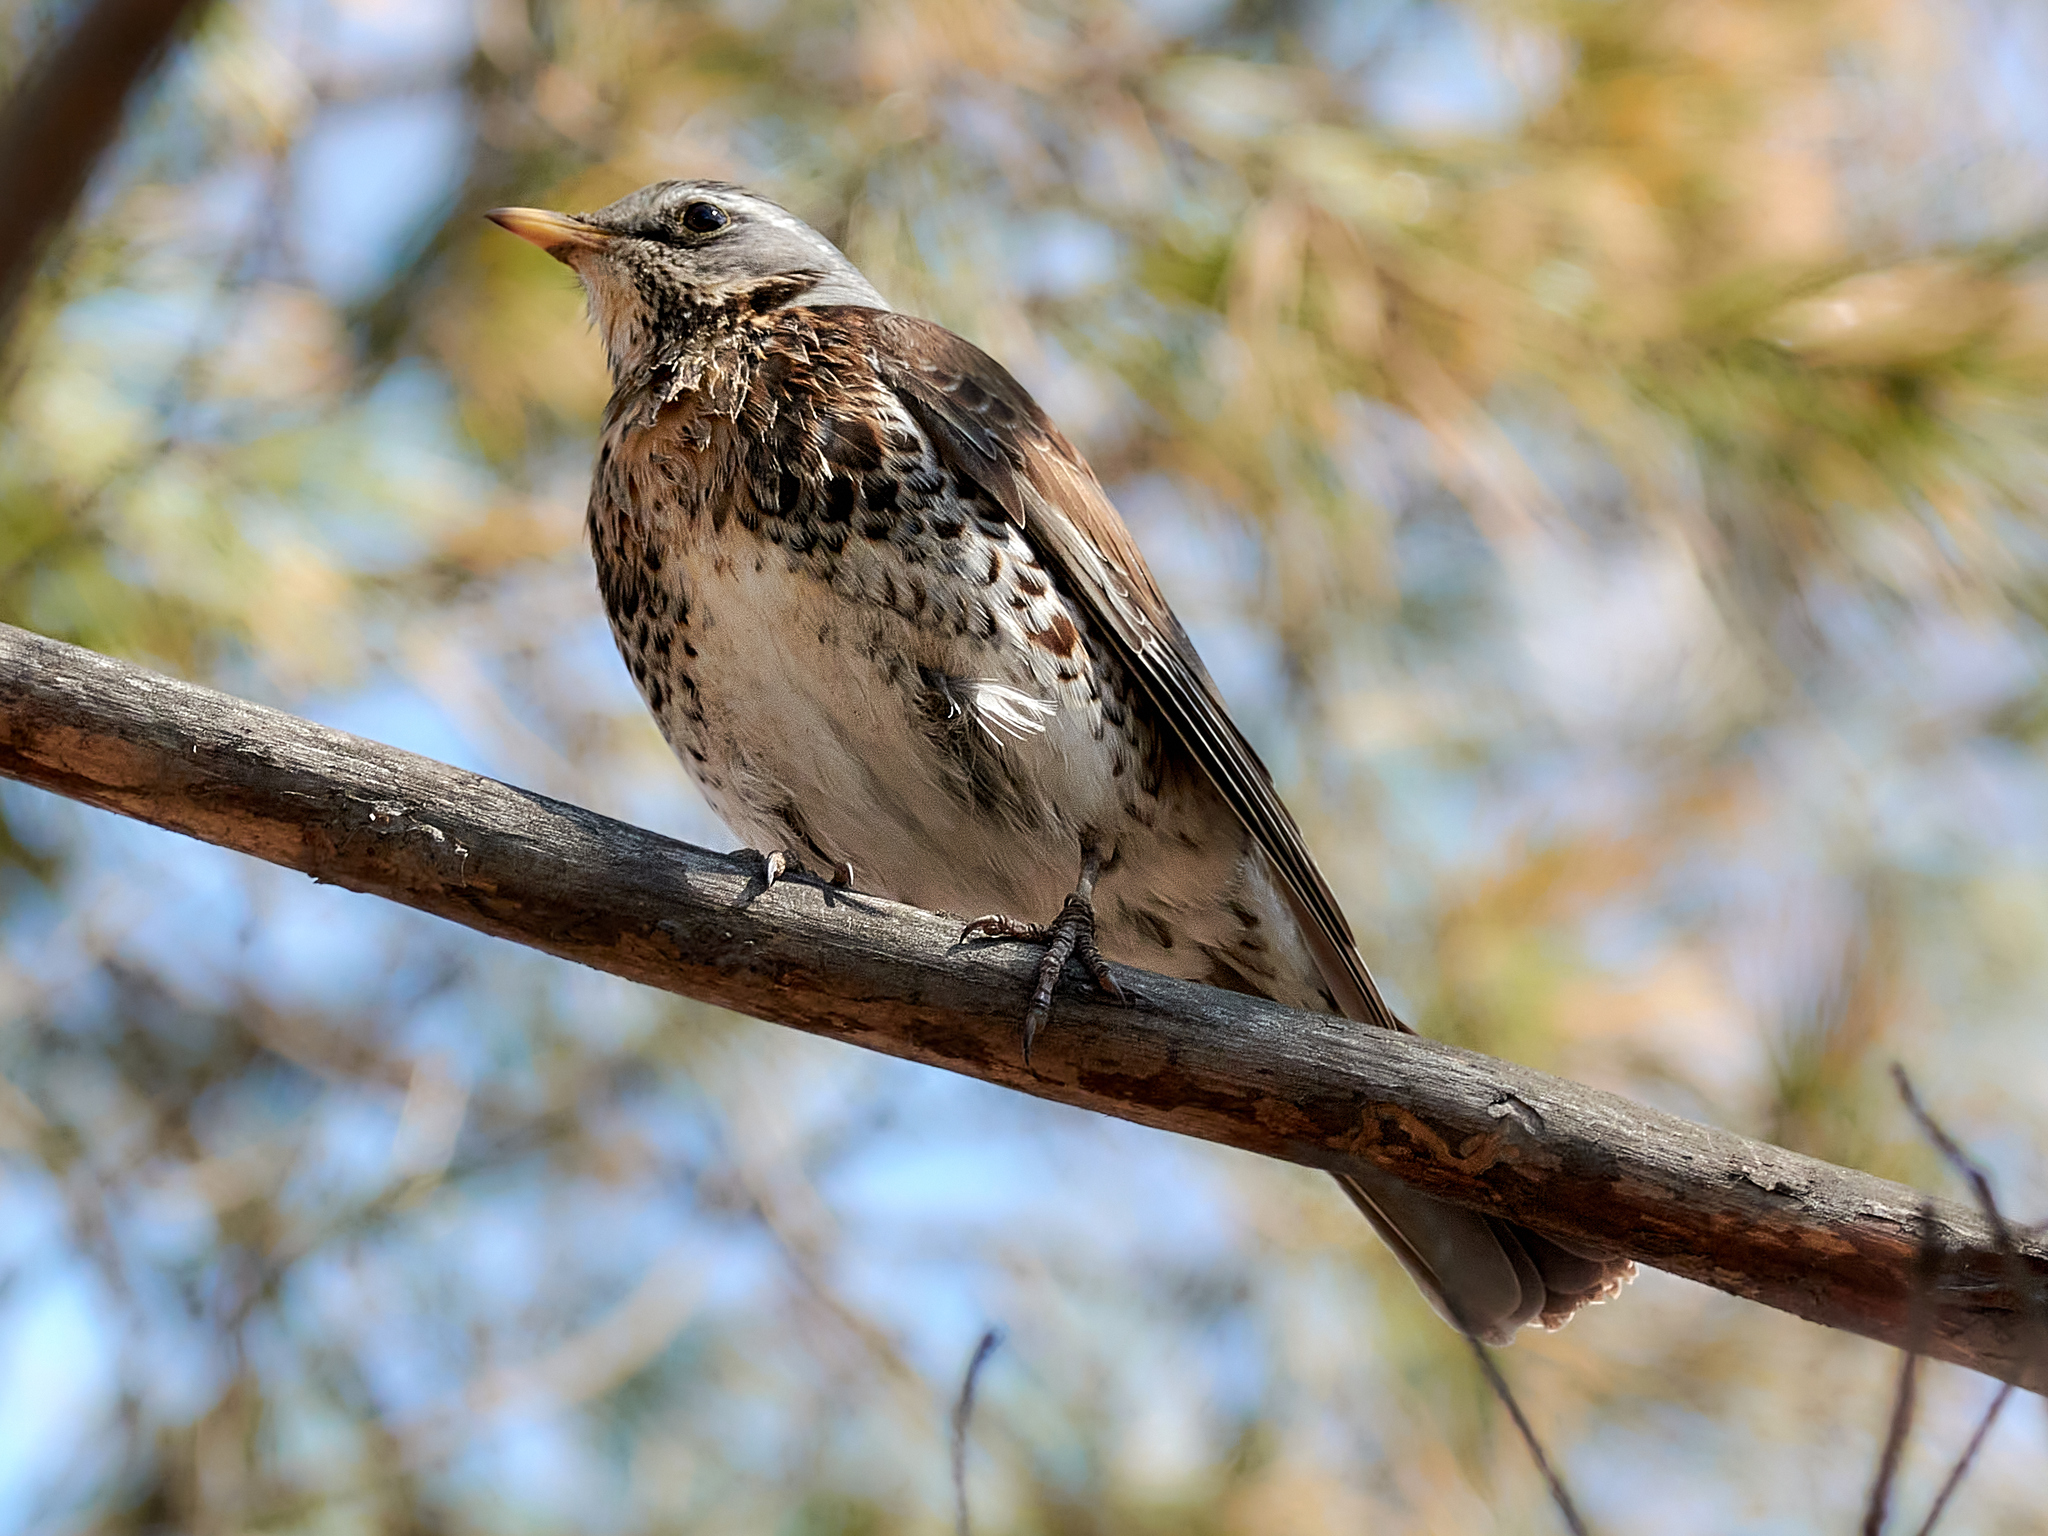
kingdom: Animalia
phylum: Chordata
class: Aves
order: Passeriformes
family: Turdidae
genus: Turdus
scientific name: Turdus pilaris
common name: Fieldfare
